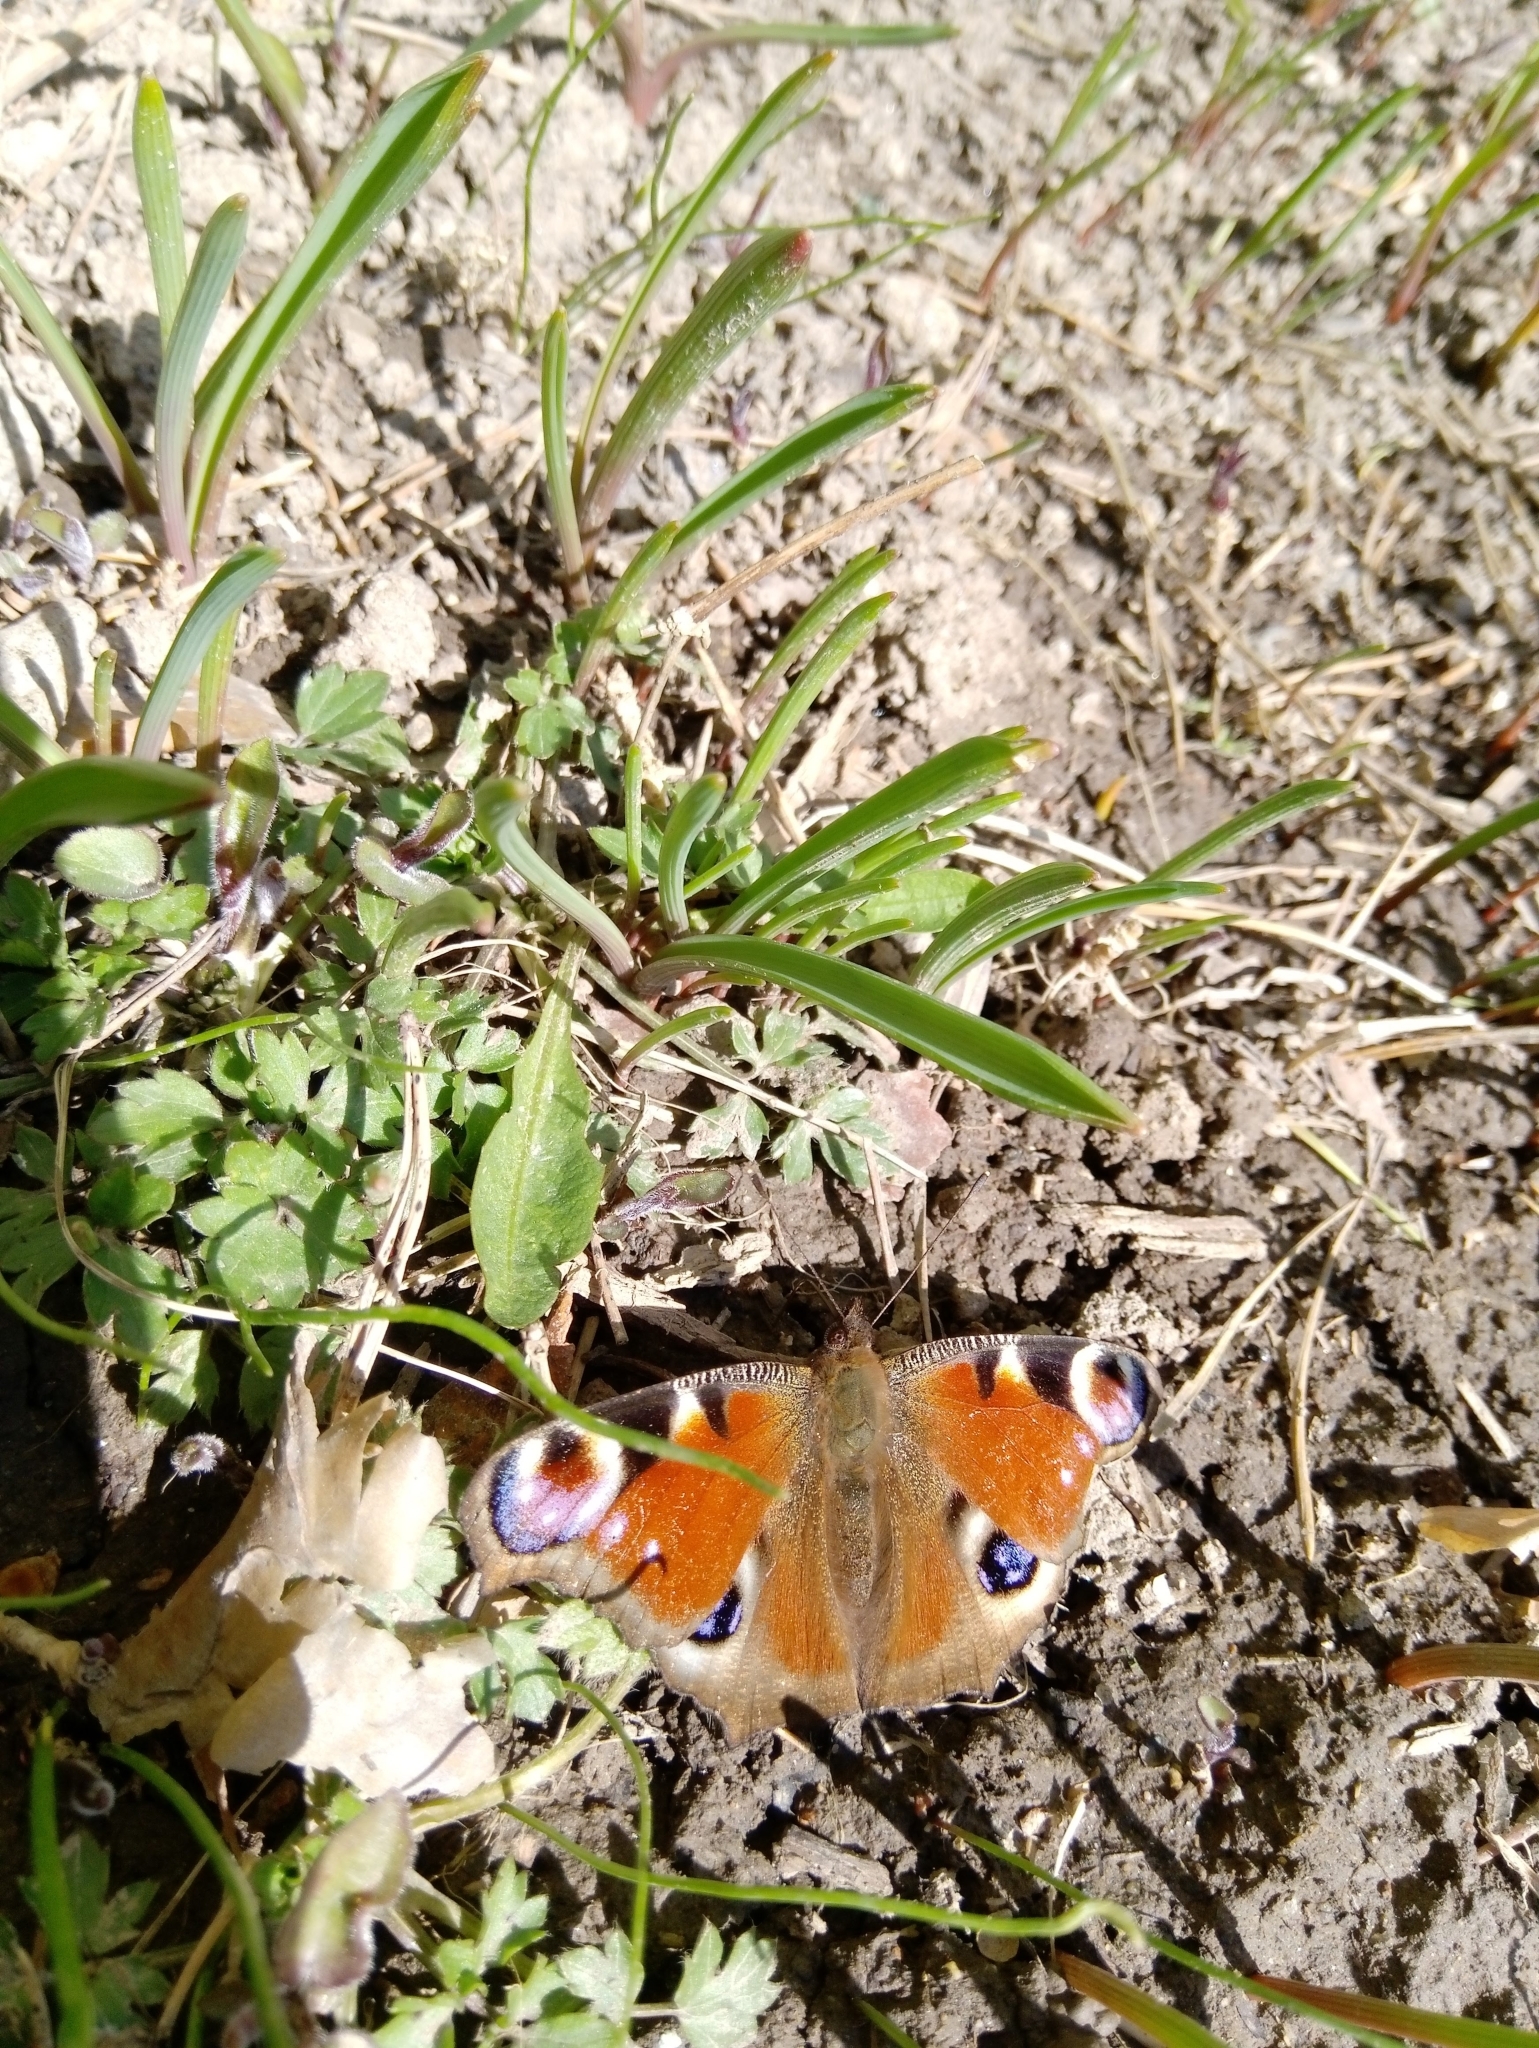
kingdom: Animalia
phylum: Arthropoda
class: Insecta
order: Lepidoptera
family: Nymphalidae
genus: Aglais
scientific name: Aglais io
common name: Peacock
